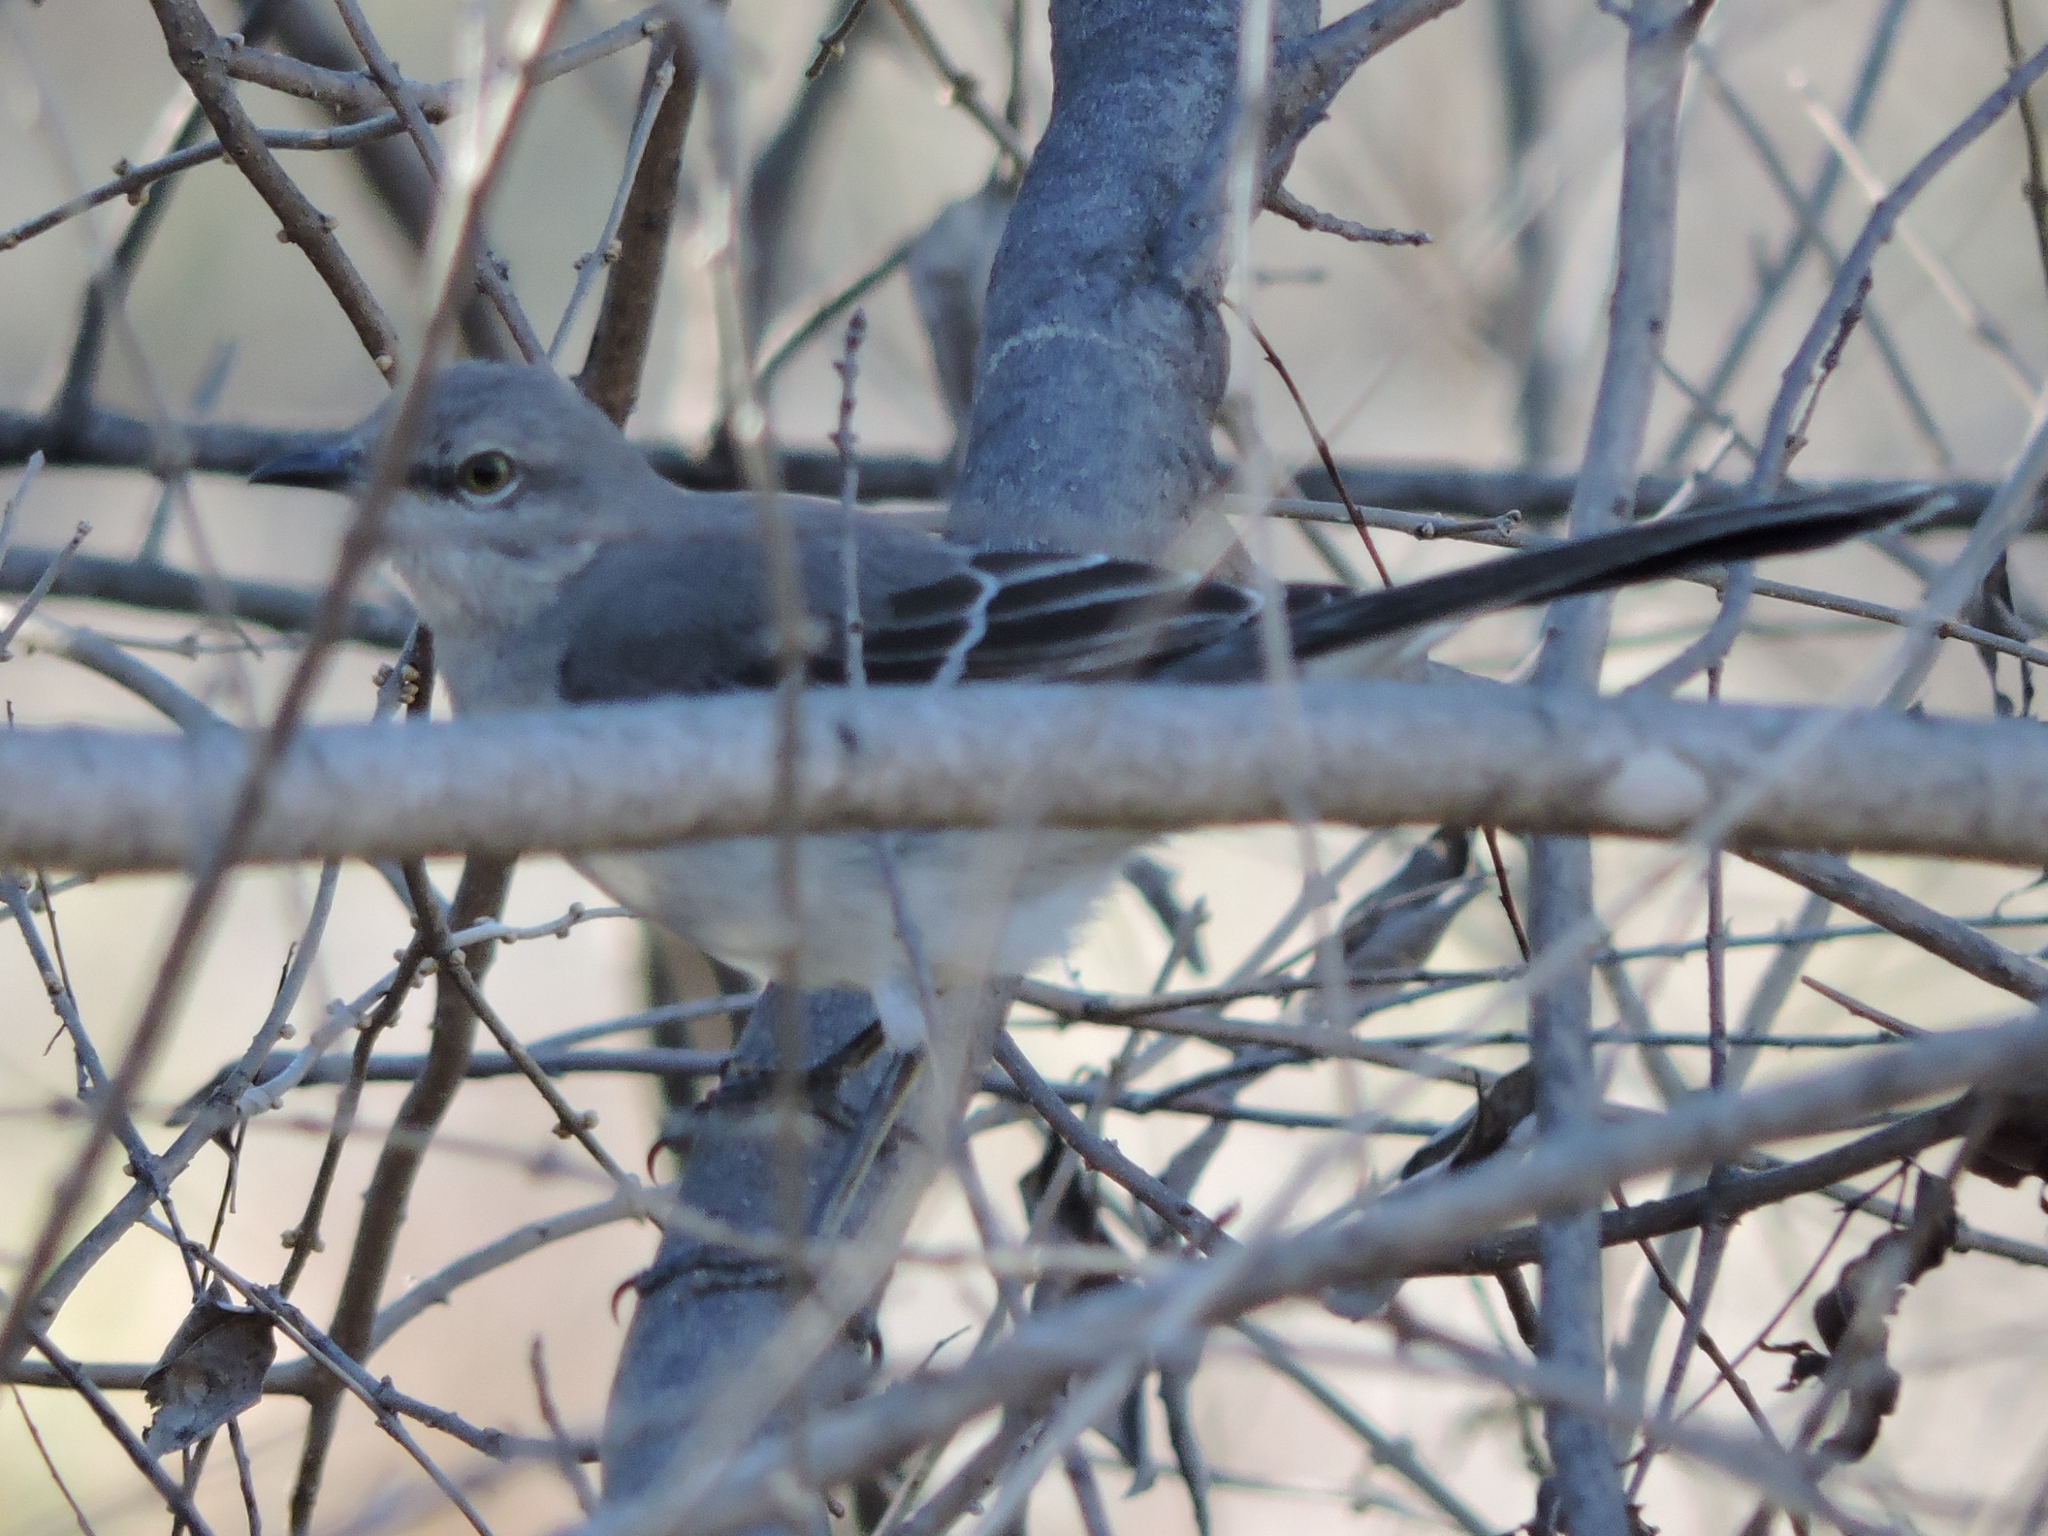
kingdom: Animalia
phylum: Chordata
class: Aves
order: Passeriformes
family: Mimidae
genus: Mimus
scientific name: Mimus polyglottos
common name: Northern mockingbird
